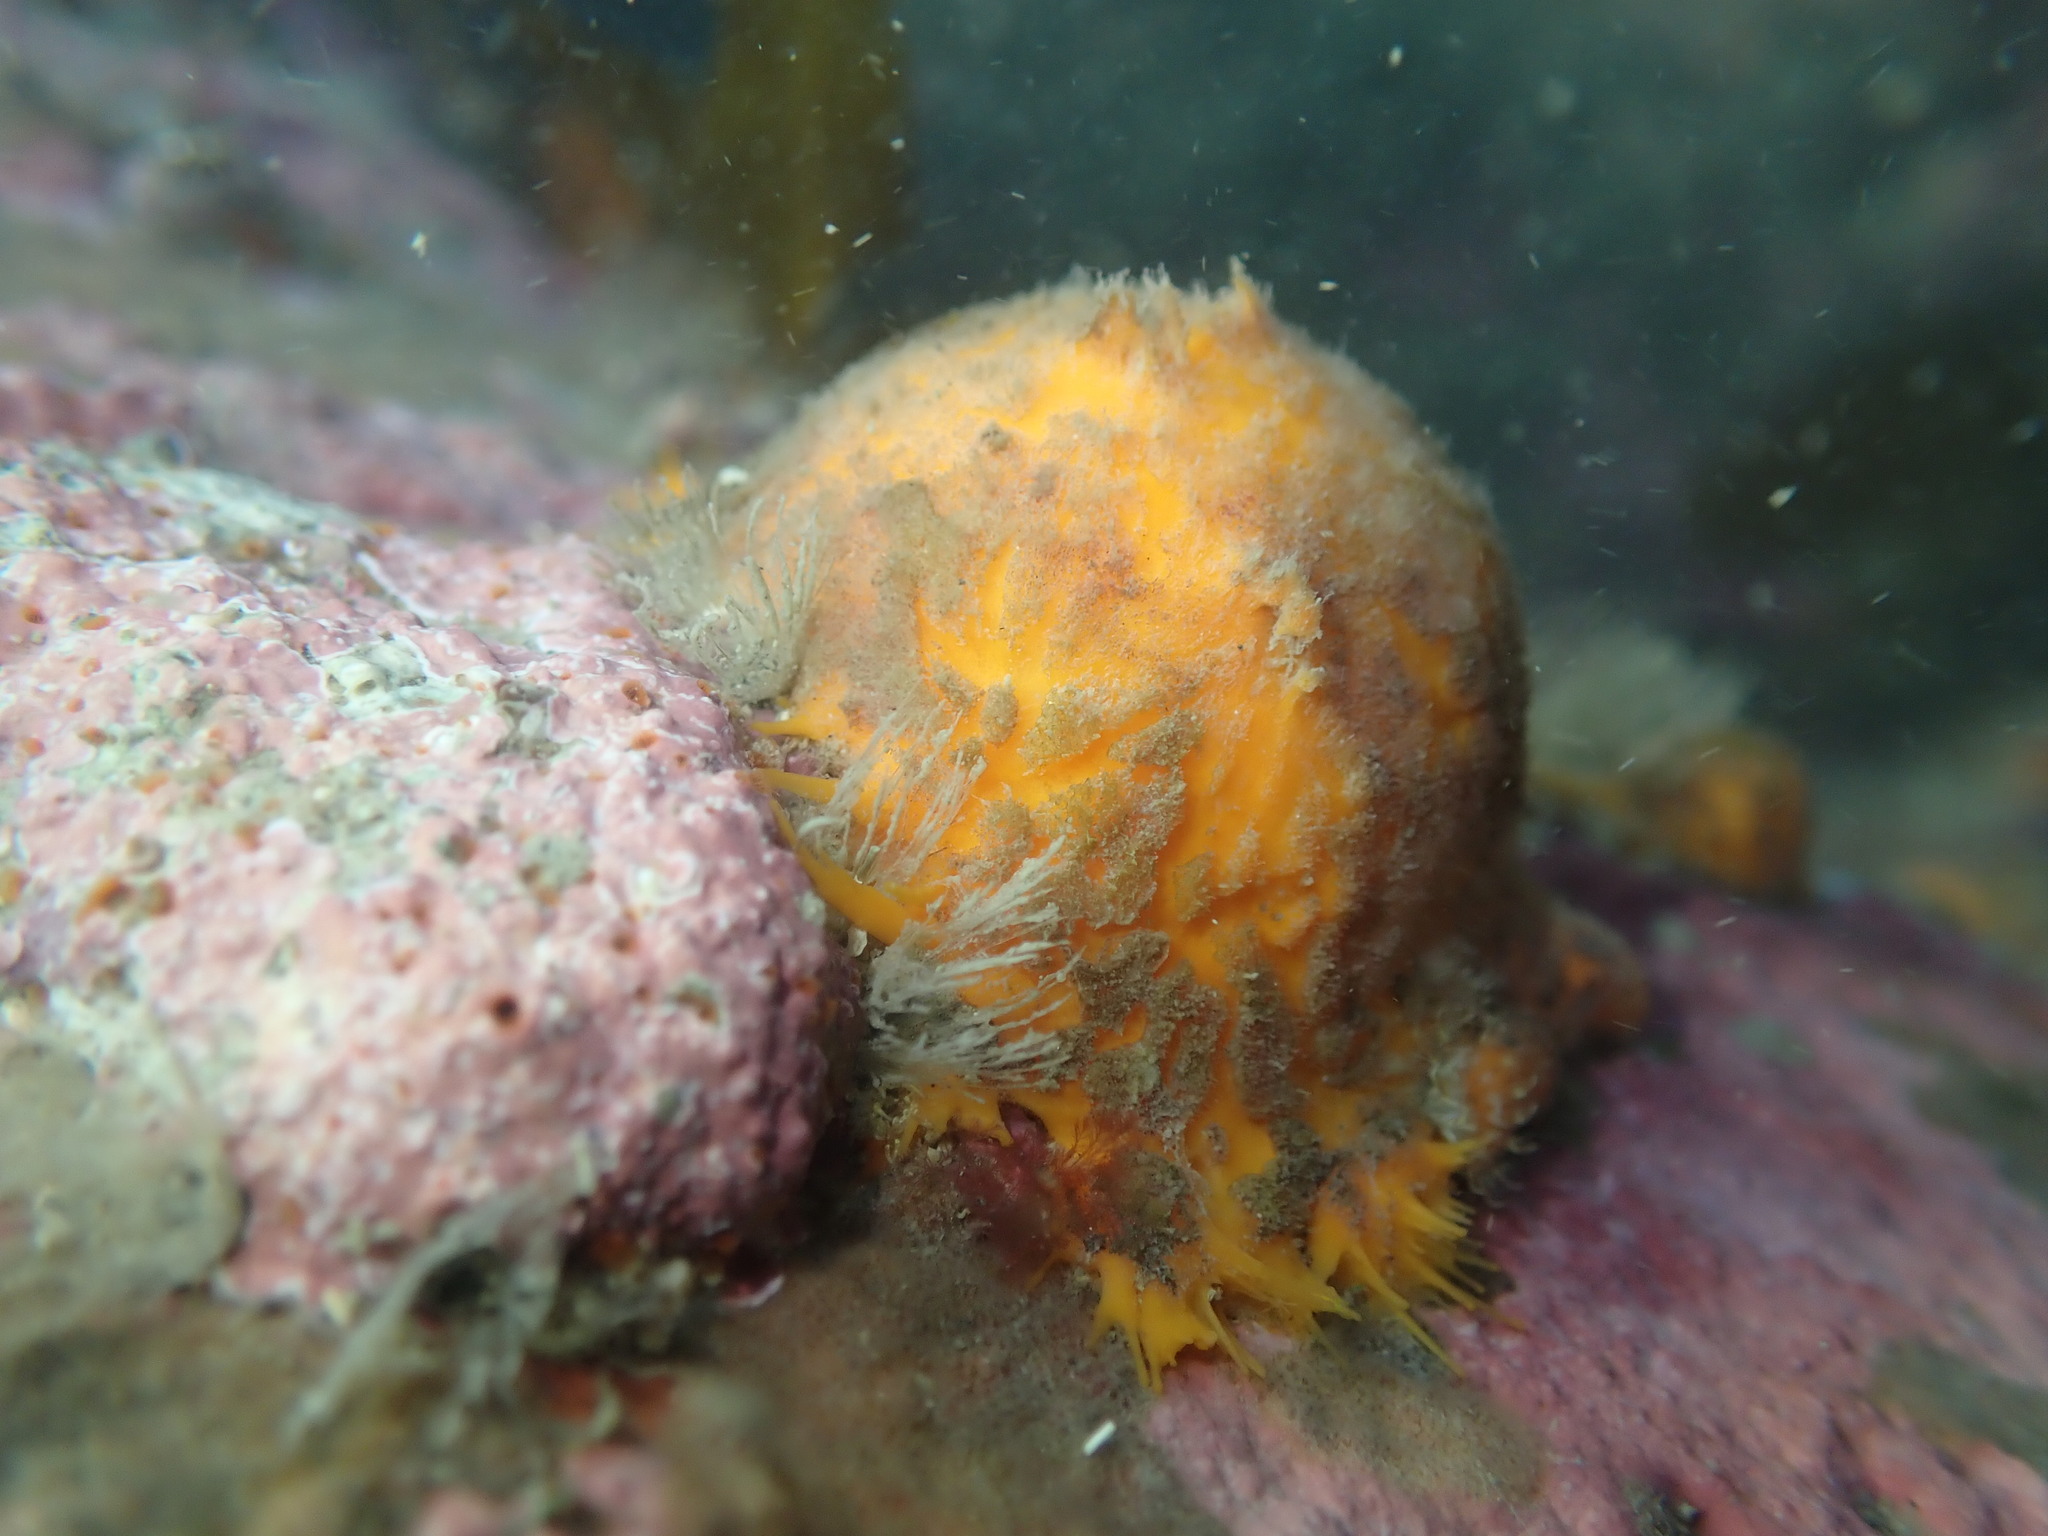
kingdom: Animalia
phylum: Porifera
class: Demospongiae
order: Tethyida
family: Tethyidae
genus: Tethya
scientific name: Tethya burtoni
